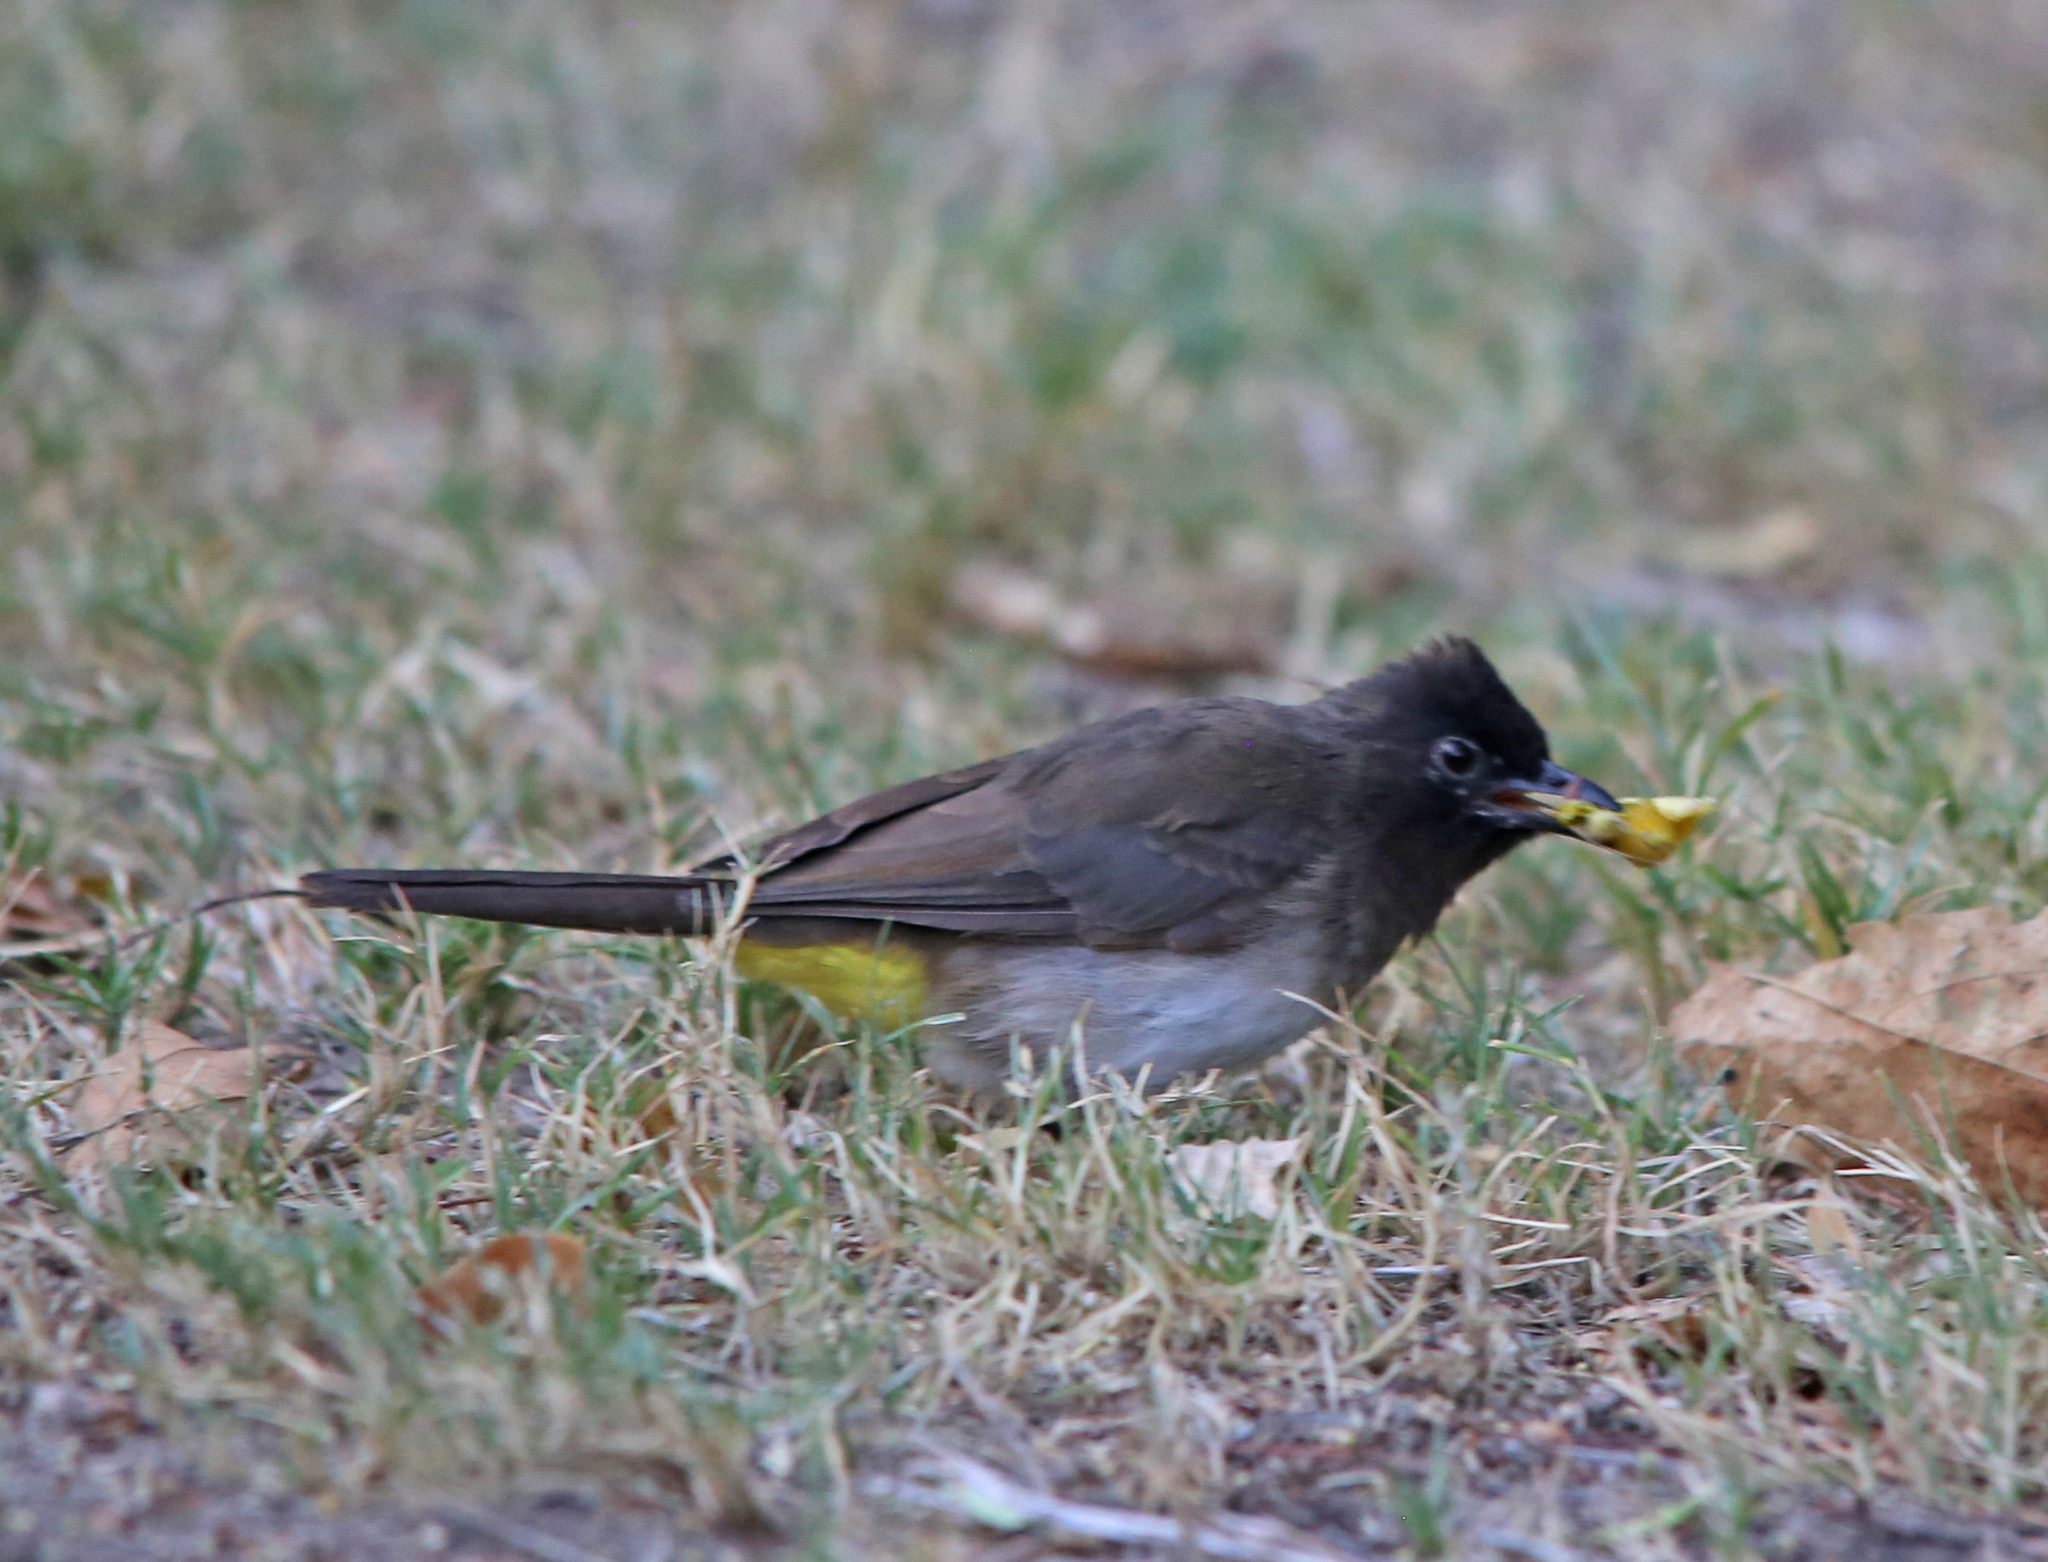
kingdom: Animalia
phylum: Chordata
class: Aves
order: Passeriformes
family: Pycnonotidae
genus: Pycnonotus
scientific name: Pycnonotus barbatus
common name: Common bulbul
